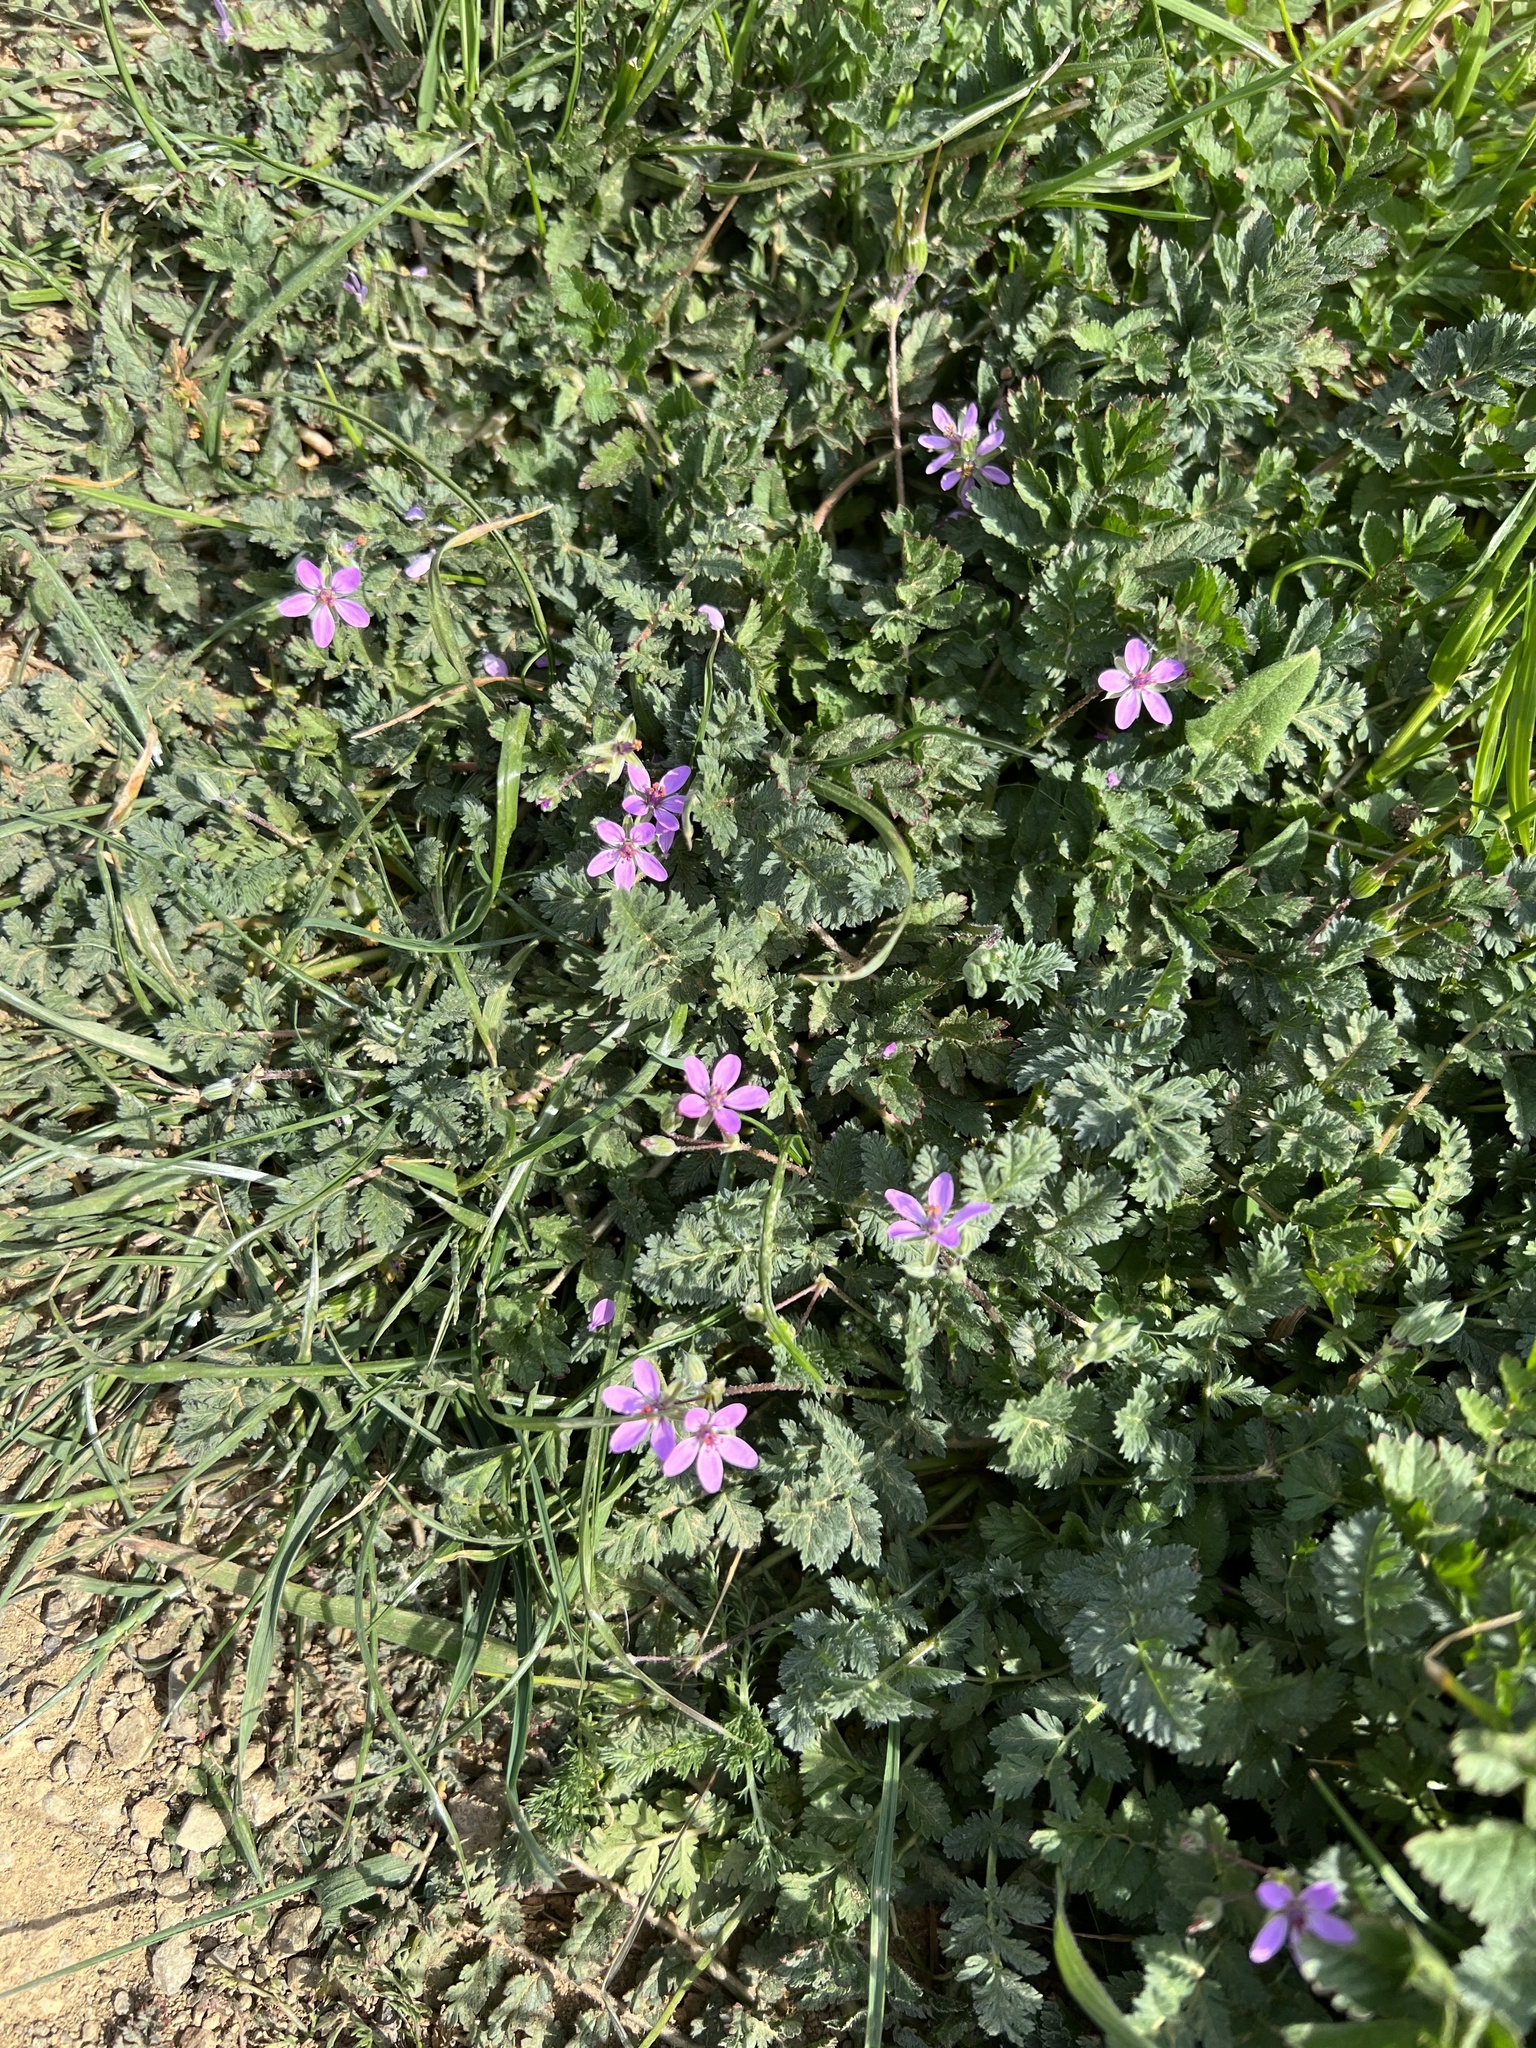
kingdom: Plantae
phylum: Tracheophyta
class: Magnoliopsida
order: Geraniales
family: Geraniaceae
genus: Erodium
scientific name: Erodium cicutarium
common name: Common stork's-bill
